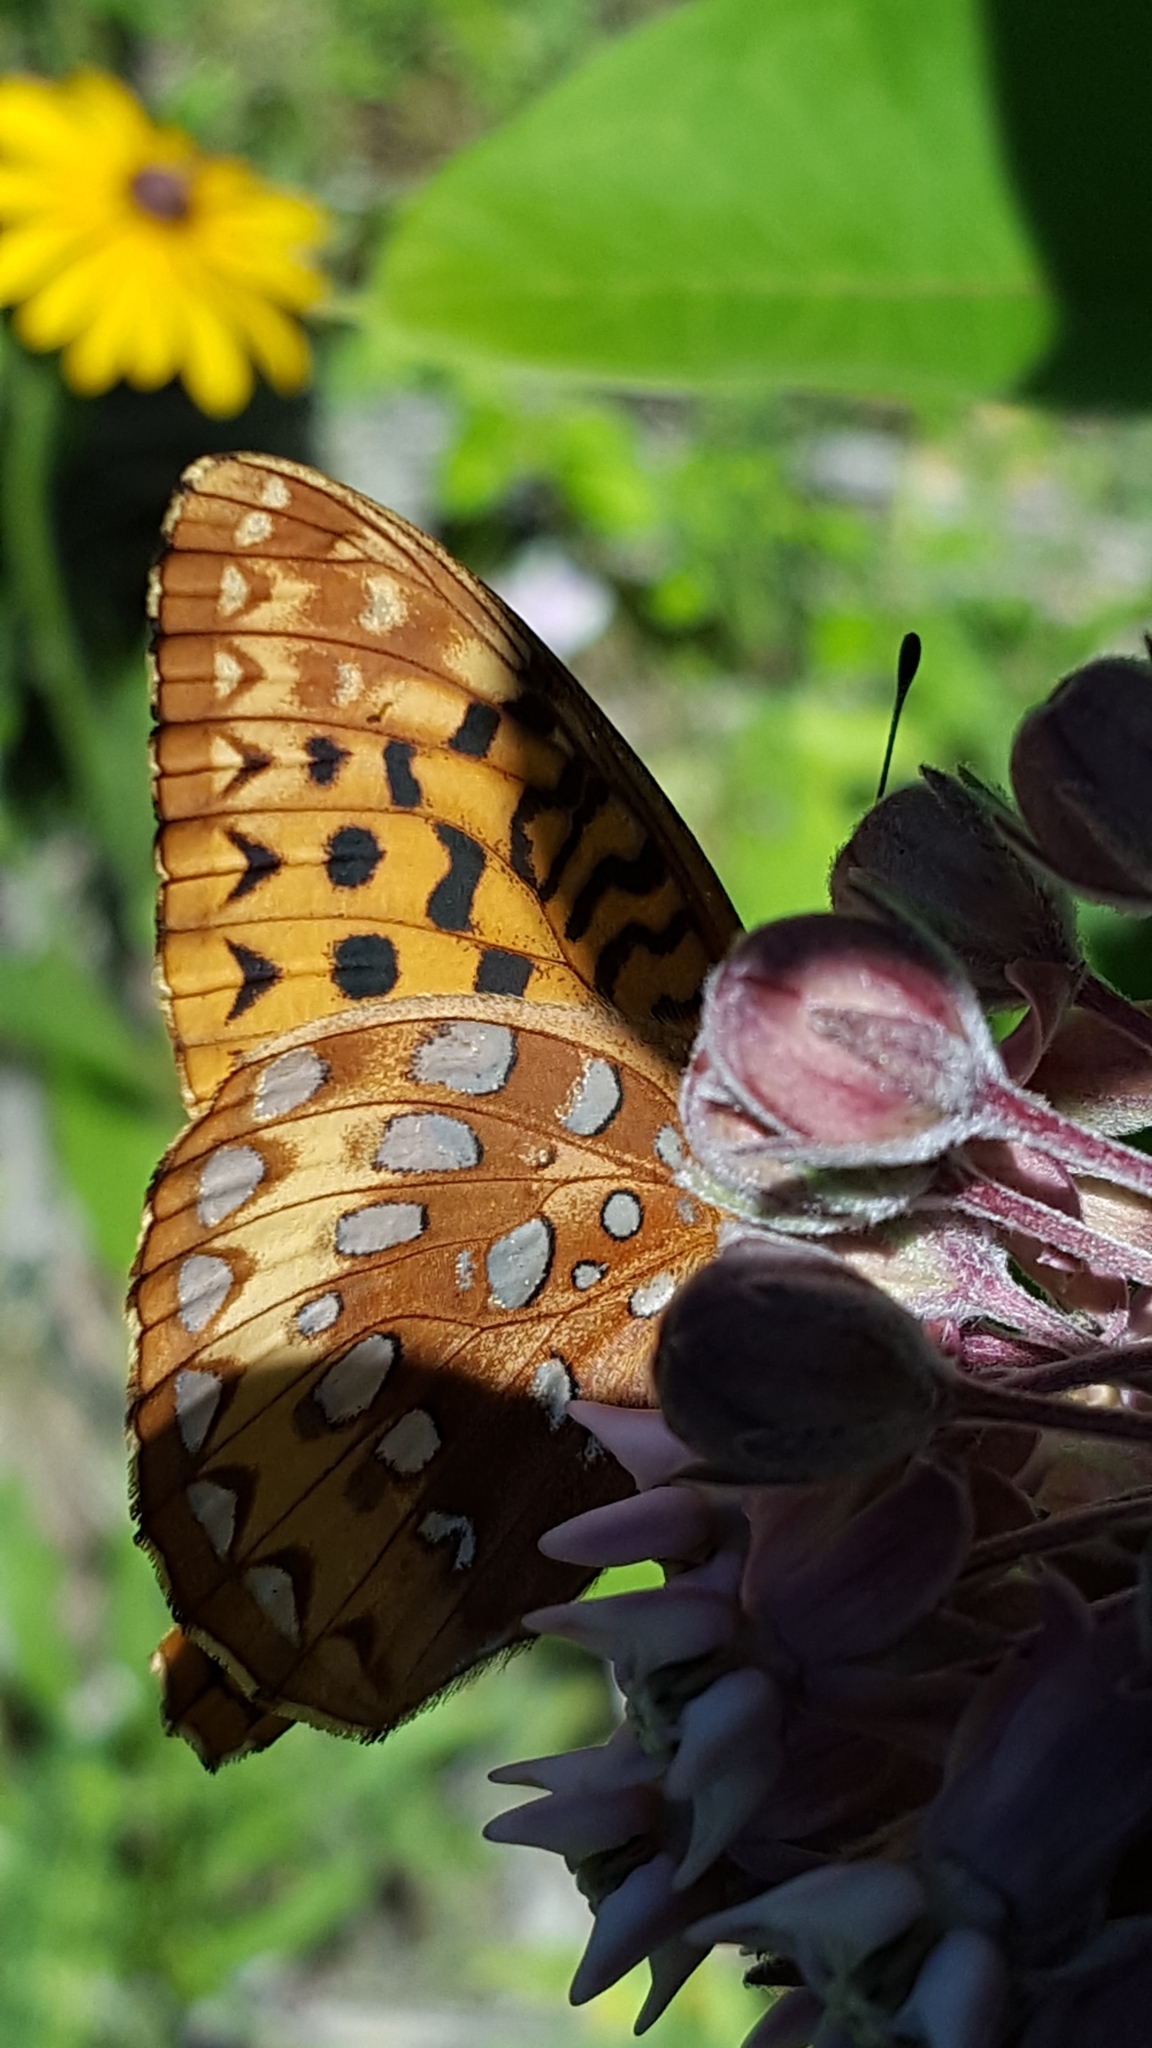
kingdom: Animalia
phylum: Arthropoda
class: Insecta
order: Lepidoptera
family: Nymphalidae
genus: Speyeria
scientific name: Speyeria cybele
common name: Great spangled fritillary
